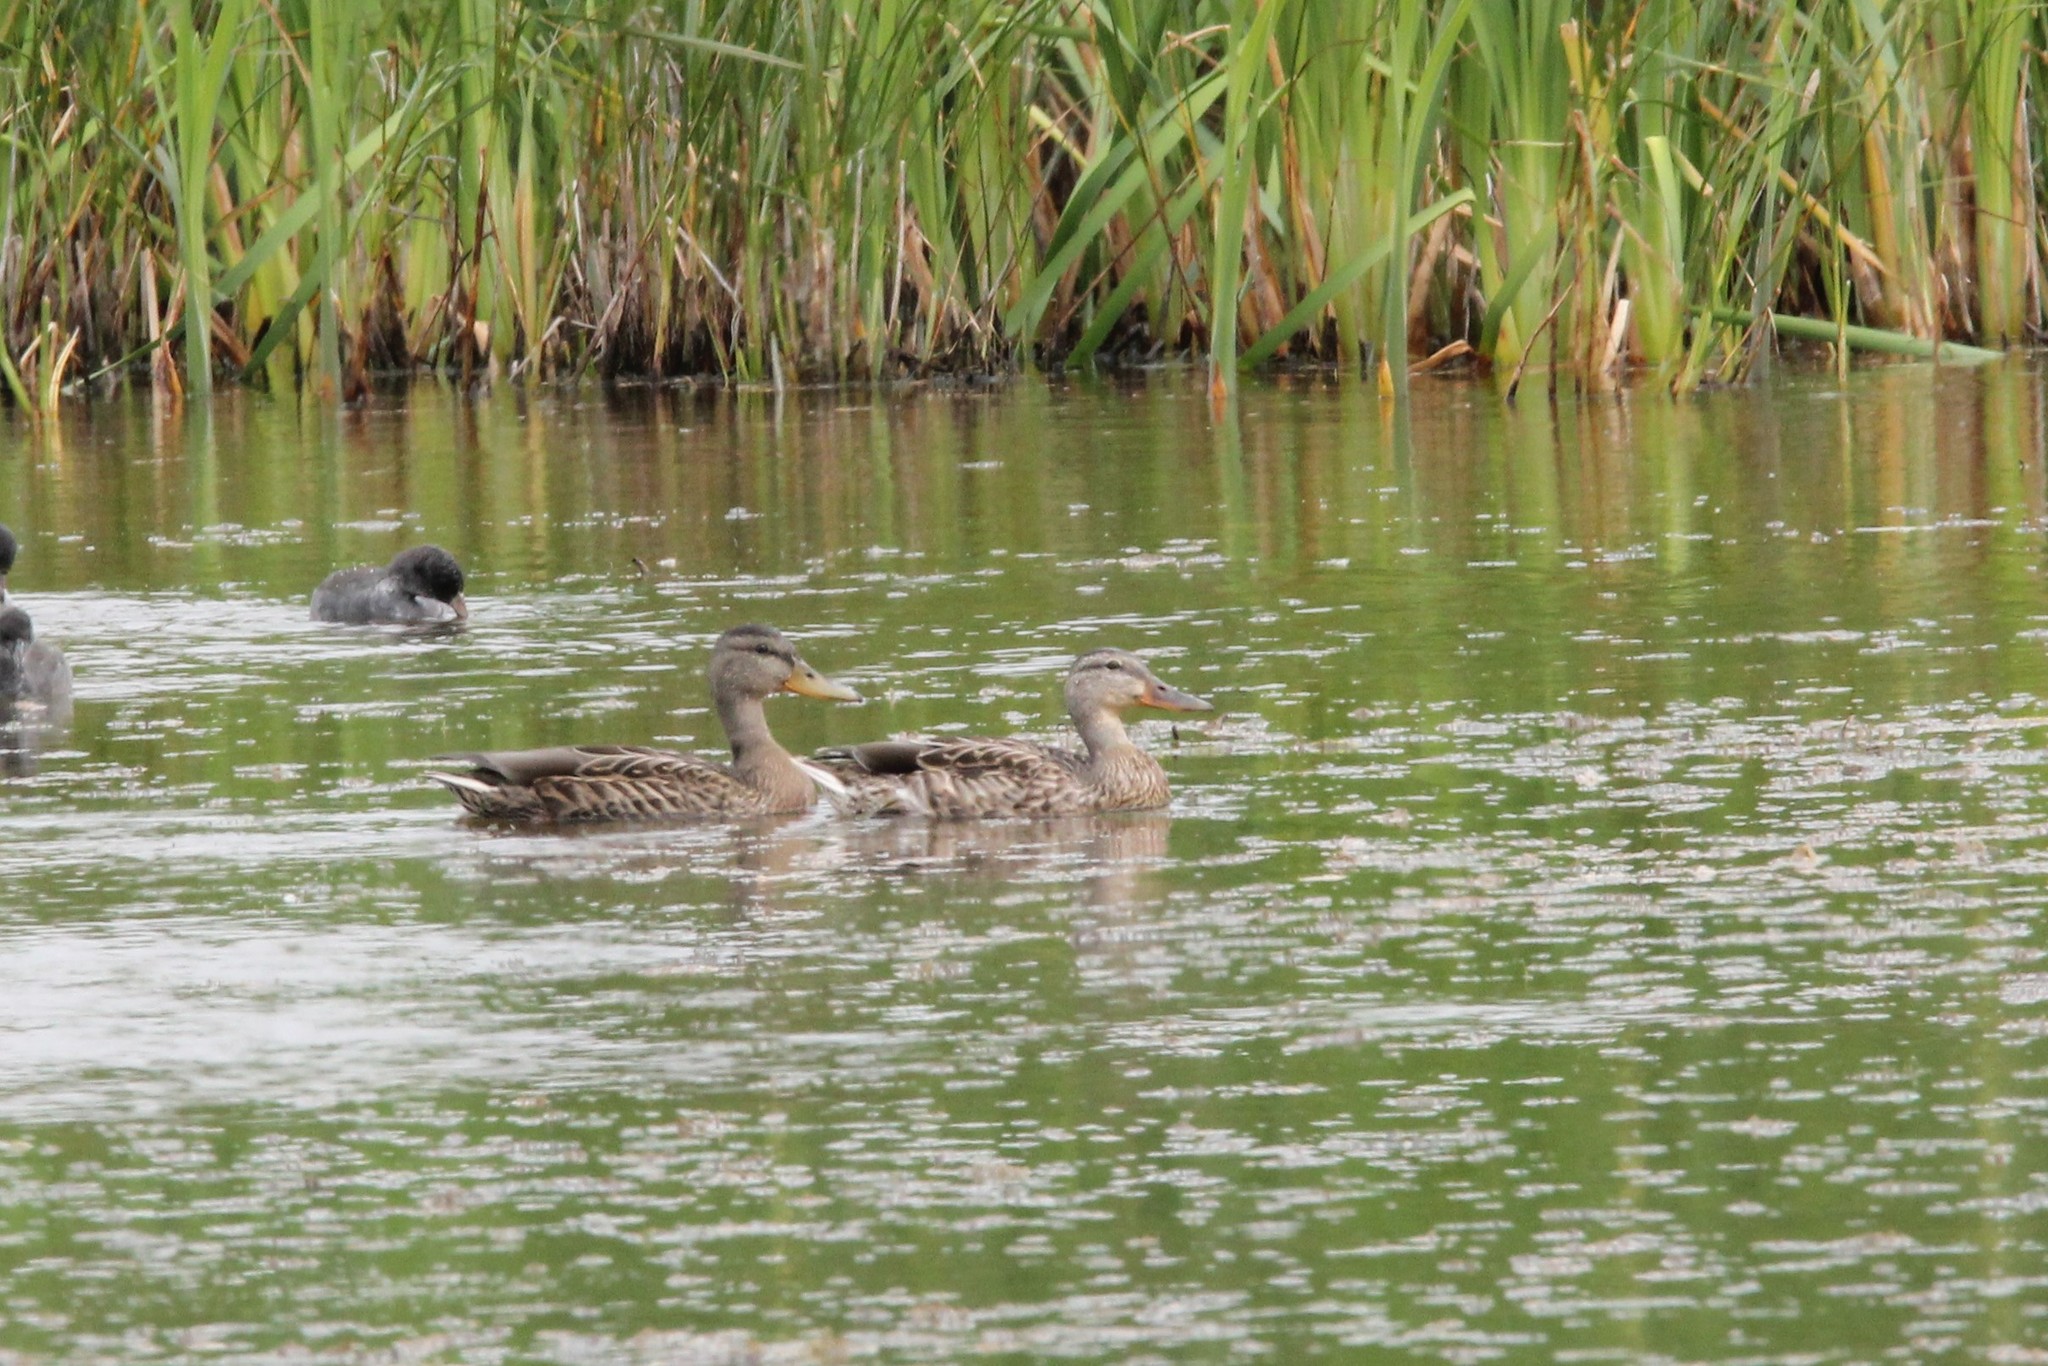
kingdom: Animalia
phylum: Chordata
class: Aves
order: Anseriformes
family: Anatidae
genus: Anas
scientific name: Anas platyrhynchos
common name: Mallard
